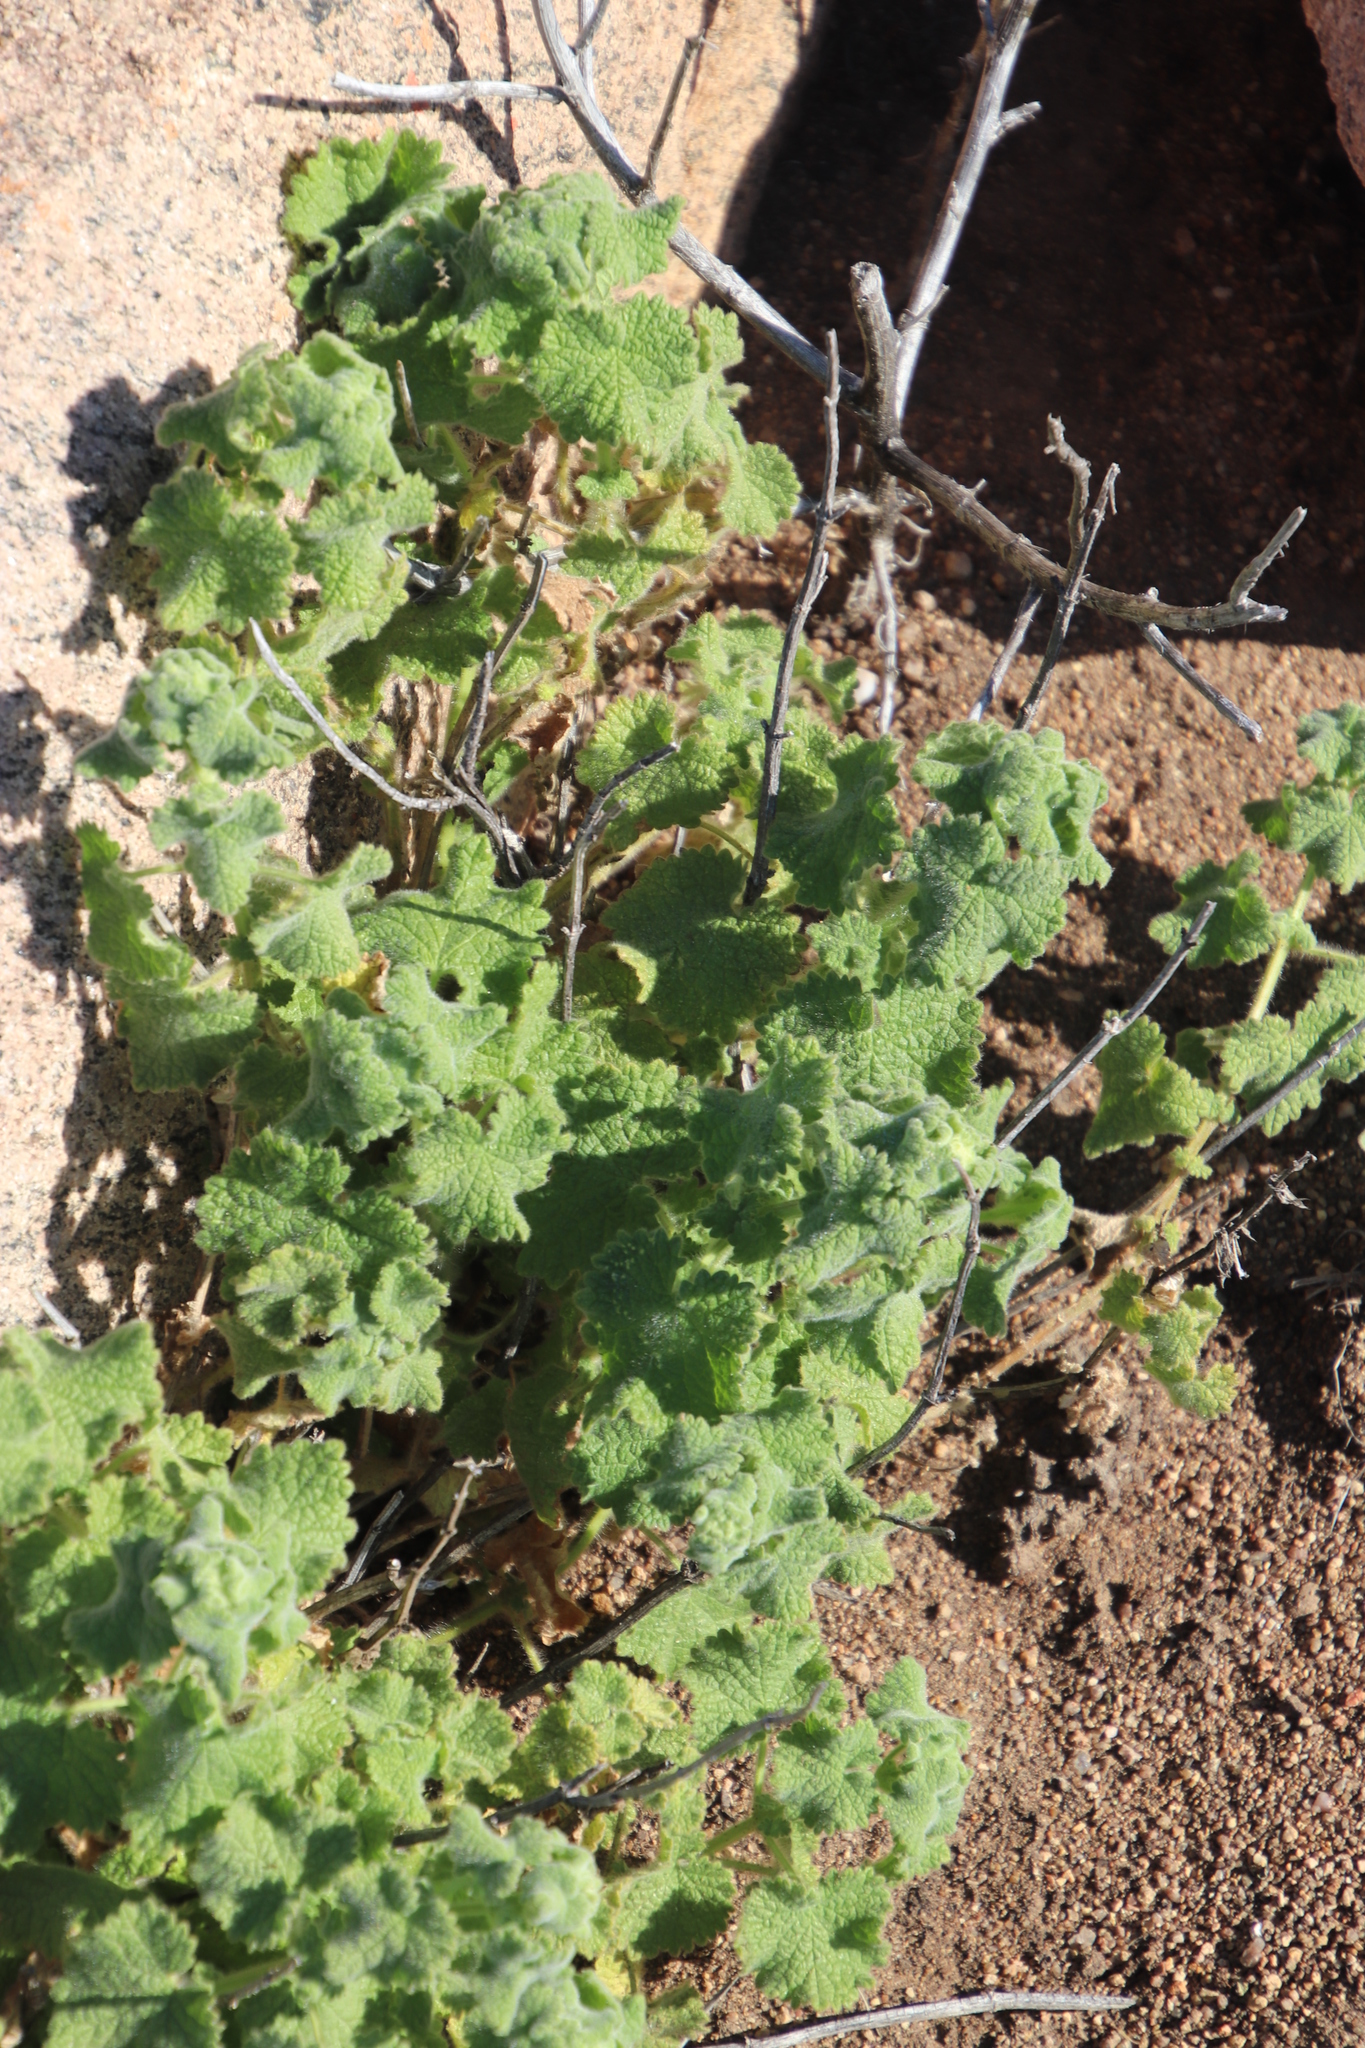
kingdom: Plantae
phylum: Tracheophyta
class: Magnoliopsida
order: Lamiales
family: Lamiaceae
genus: Pseudodictamnus
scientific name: Pseudodictamnus africanus
